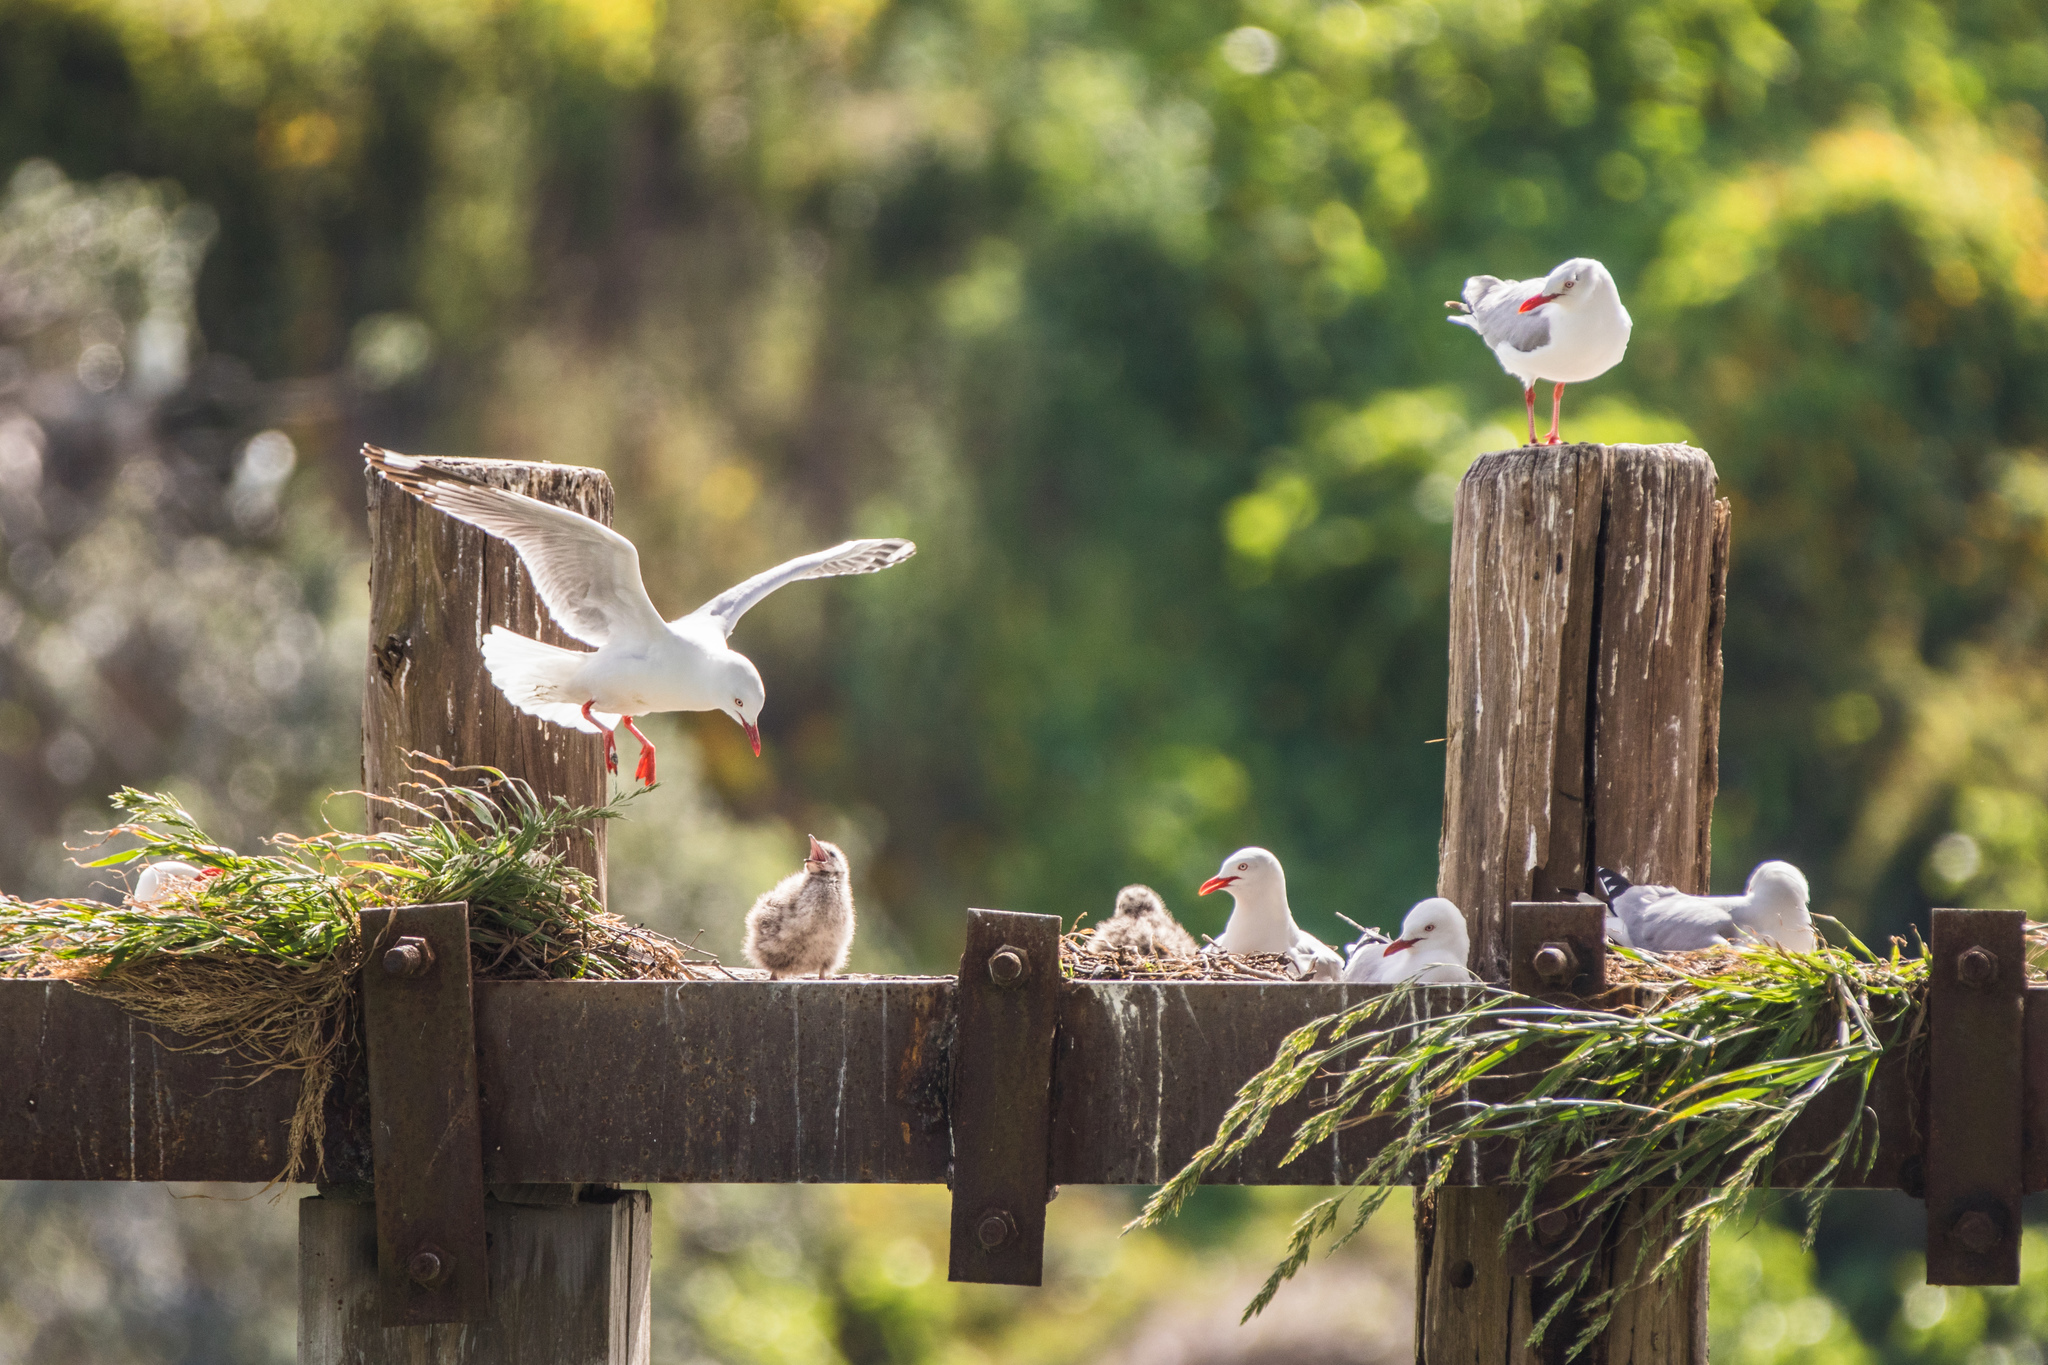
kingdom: Animalia
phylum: Chordata
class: Aves
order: Charadriiformes
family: Laridae
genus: Chroicocephalus
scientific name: Chroicocephalus novaehollandiae
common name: Silver gull
